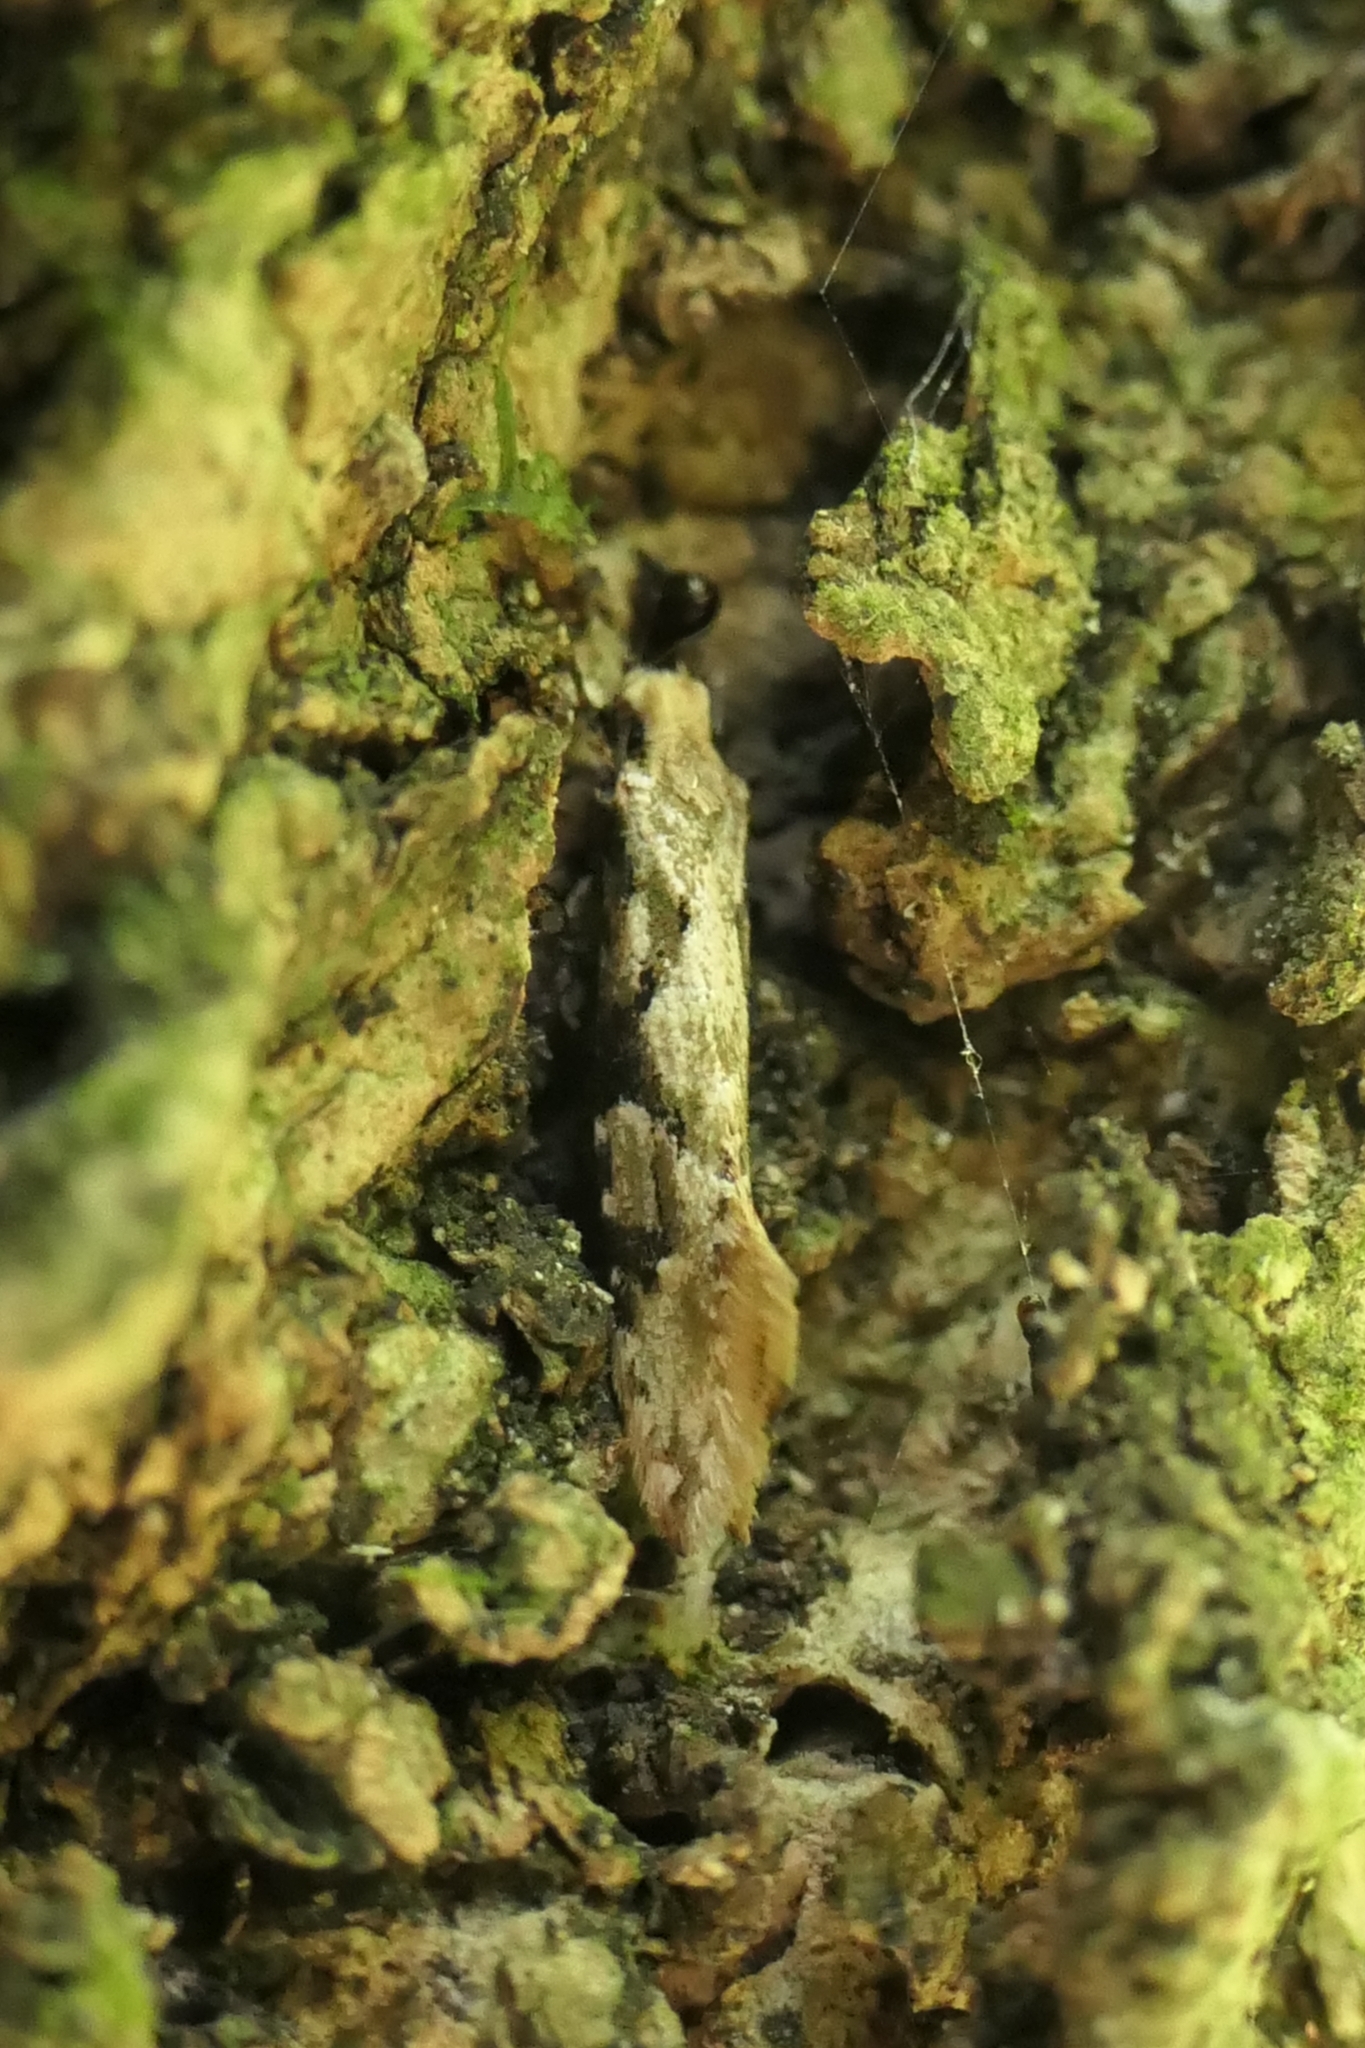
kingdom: Animalia
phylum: Arthropoda
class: Insecta
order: Lepidoptera
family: Tineidae
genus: Crypsitricha
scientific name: Crypsitricha mesotypa
